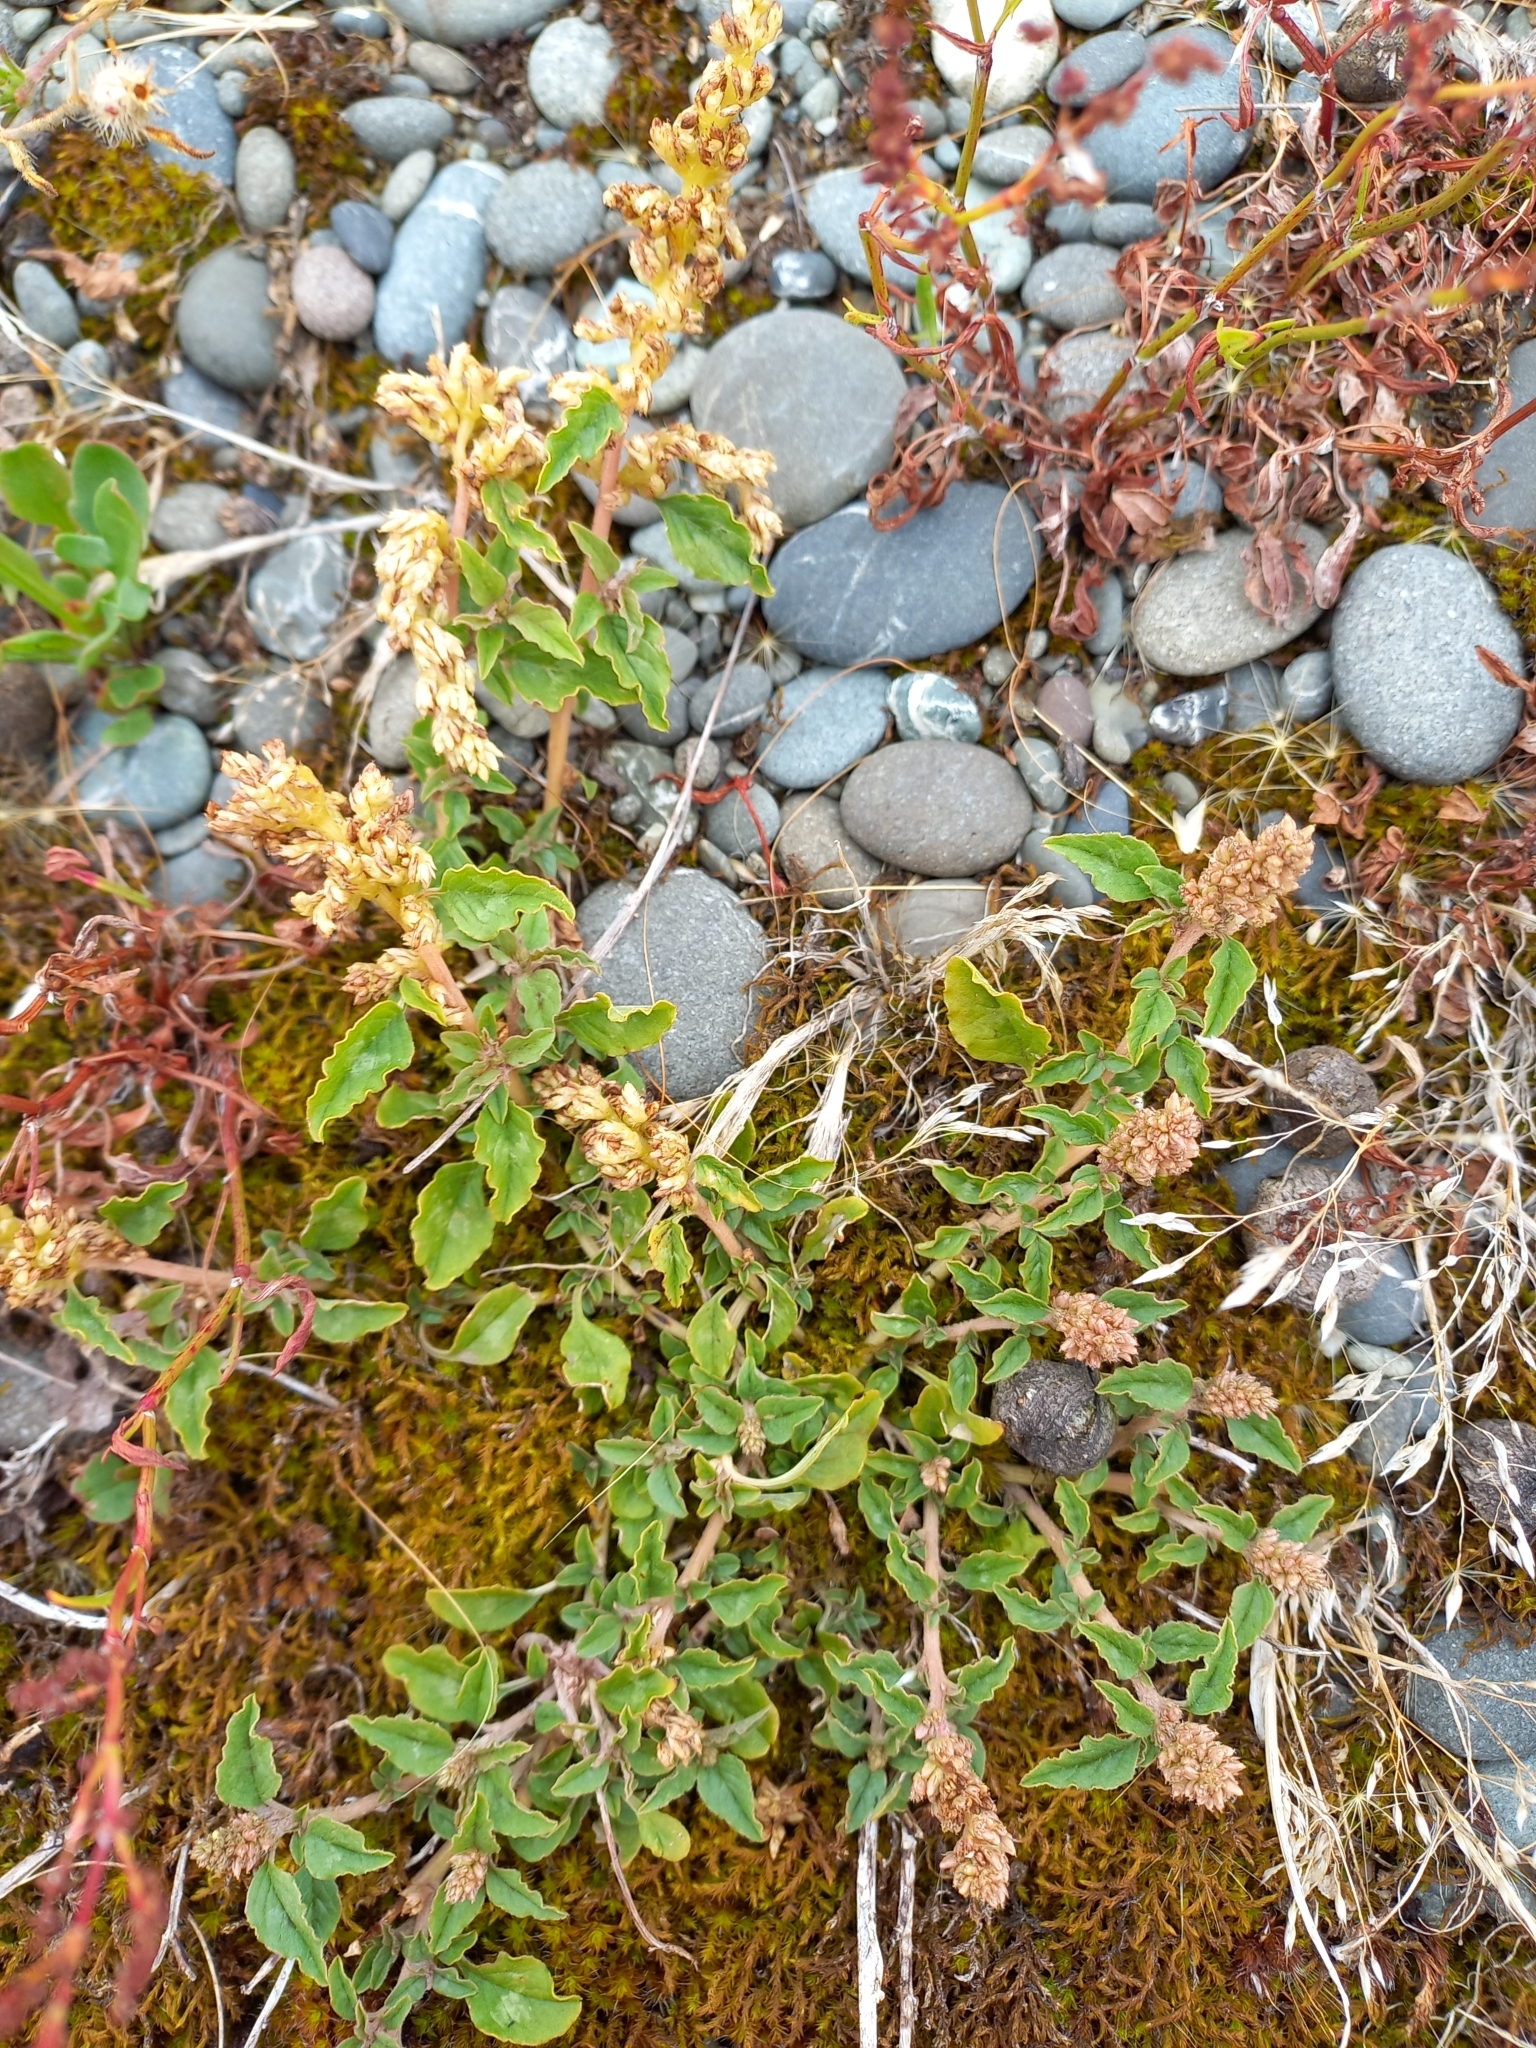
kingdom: Plantae
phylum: Tracheophyta
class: Magnoliopsida
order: Caryophyllales
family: Amaranthaceae
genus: Amaranthus
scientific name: Amaranthus deflexus
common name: Perennial pigweed
